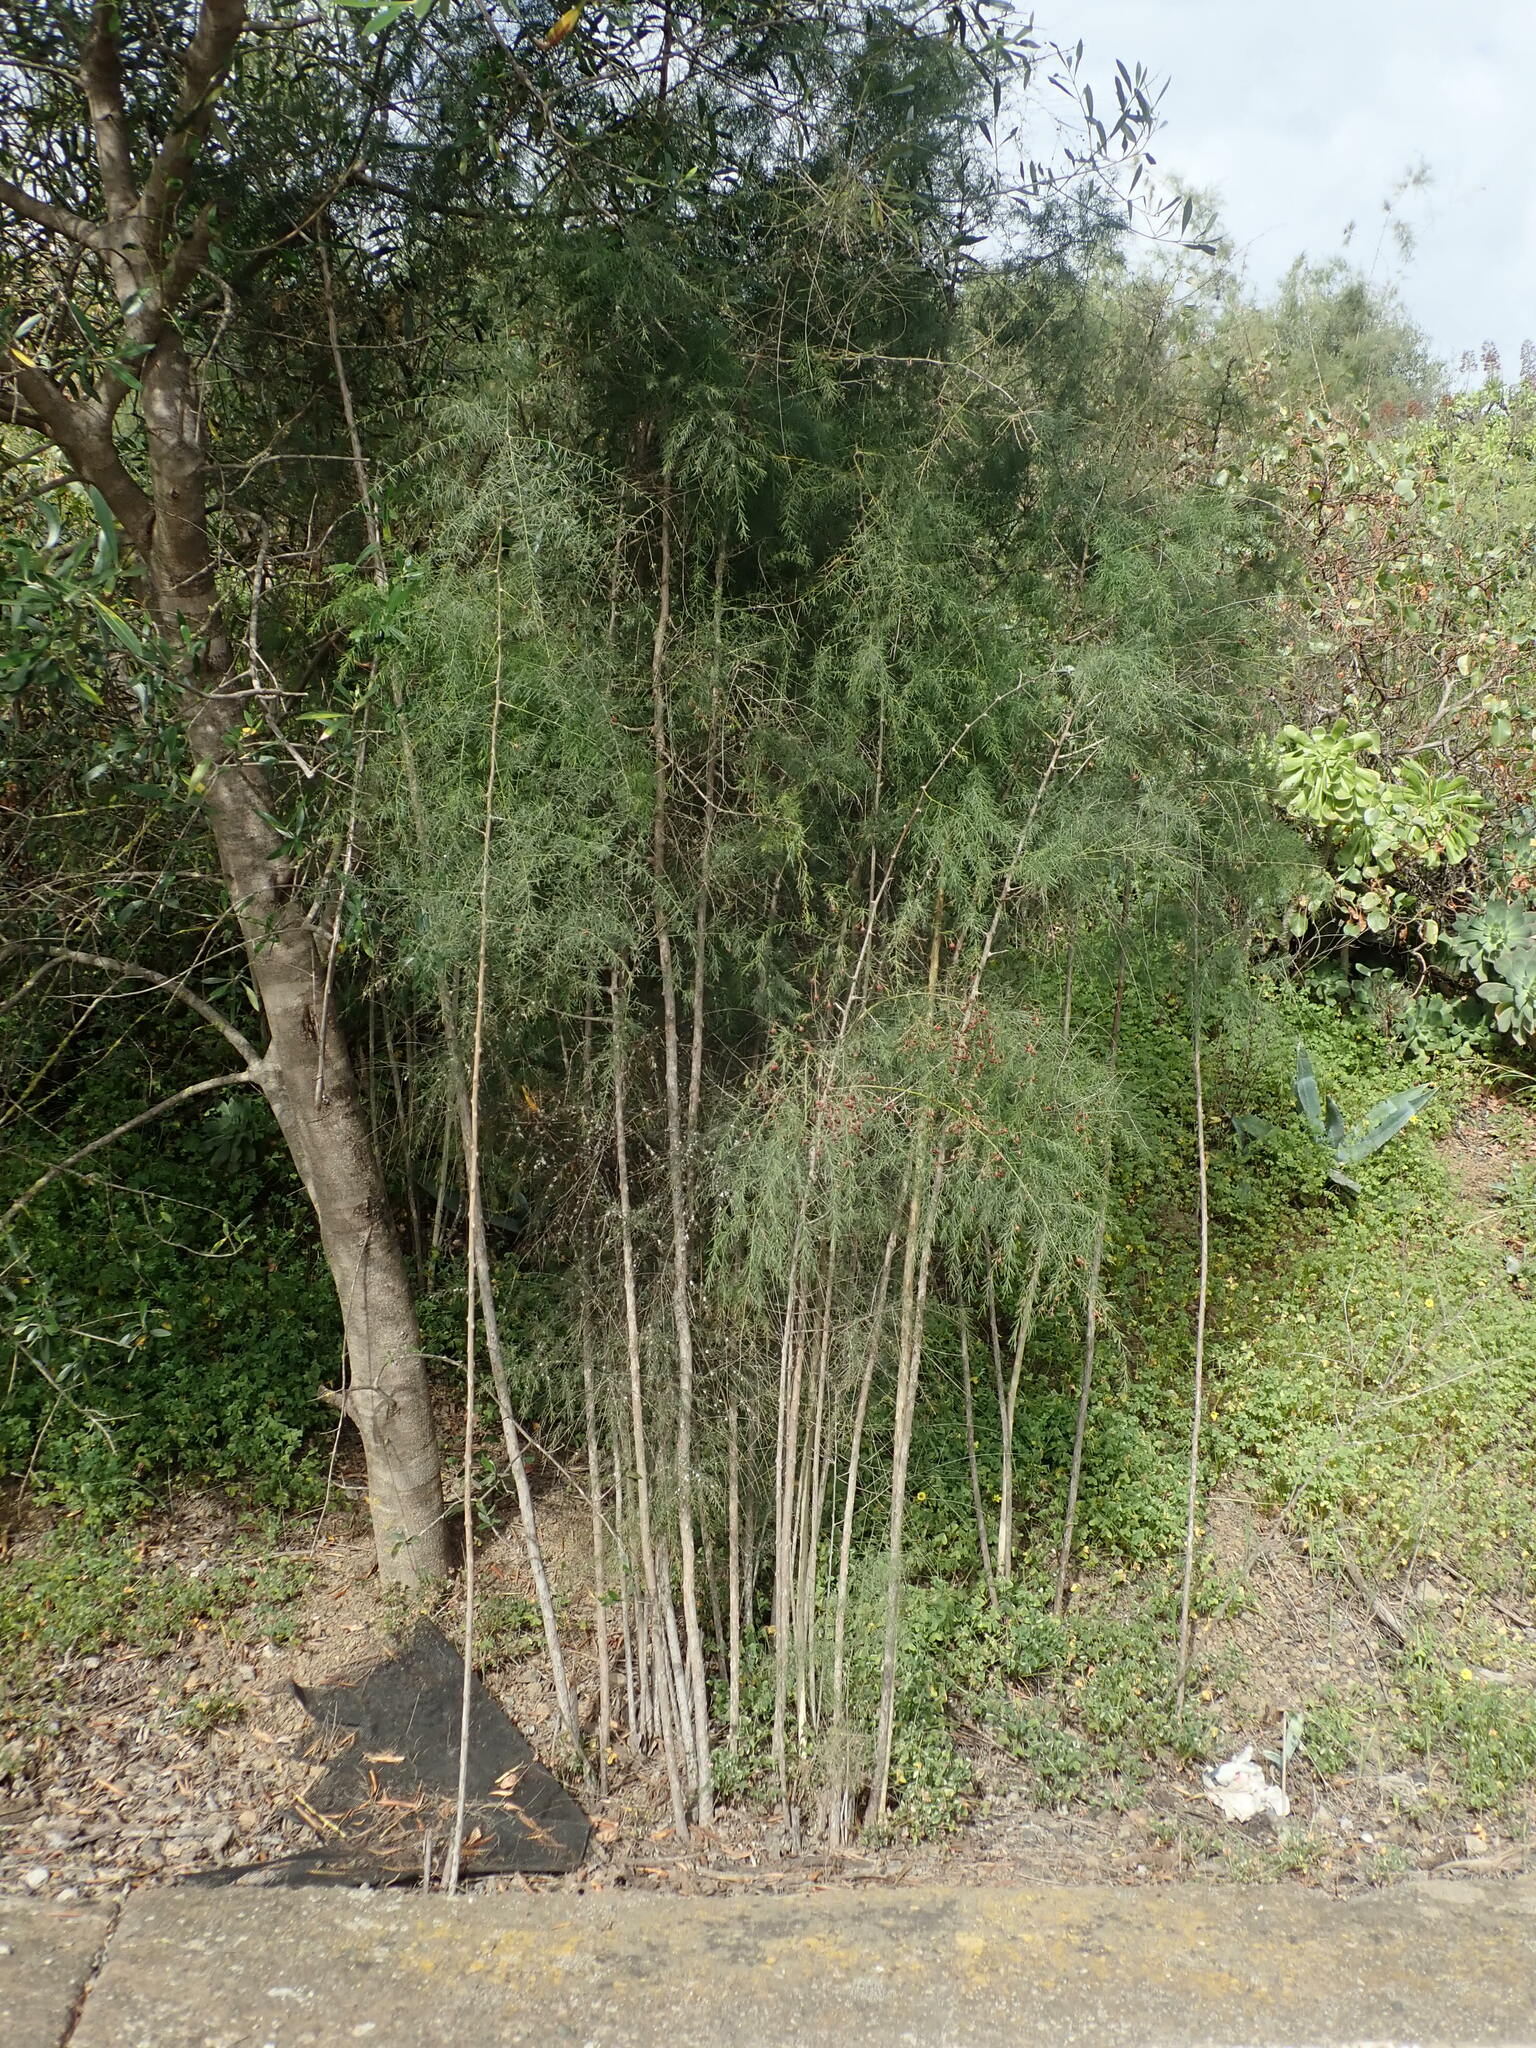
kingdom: Plantae
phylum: Tracheophyta
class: Liliopsida
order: Asparagales
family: Asparagaceae
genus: Asparagus
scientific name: Asparagus plocamoides
